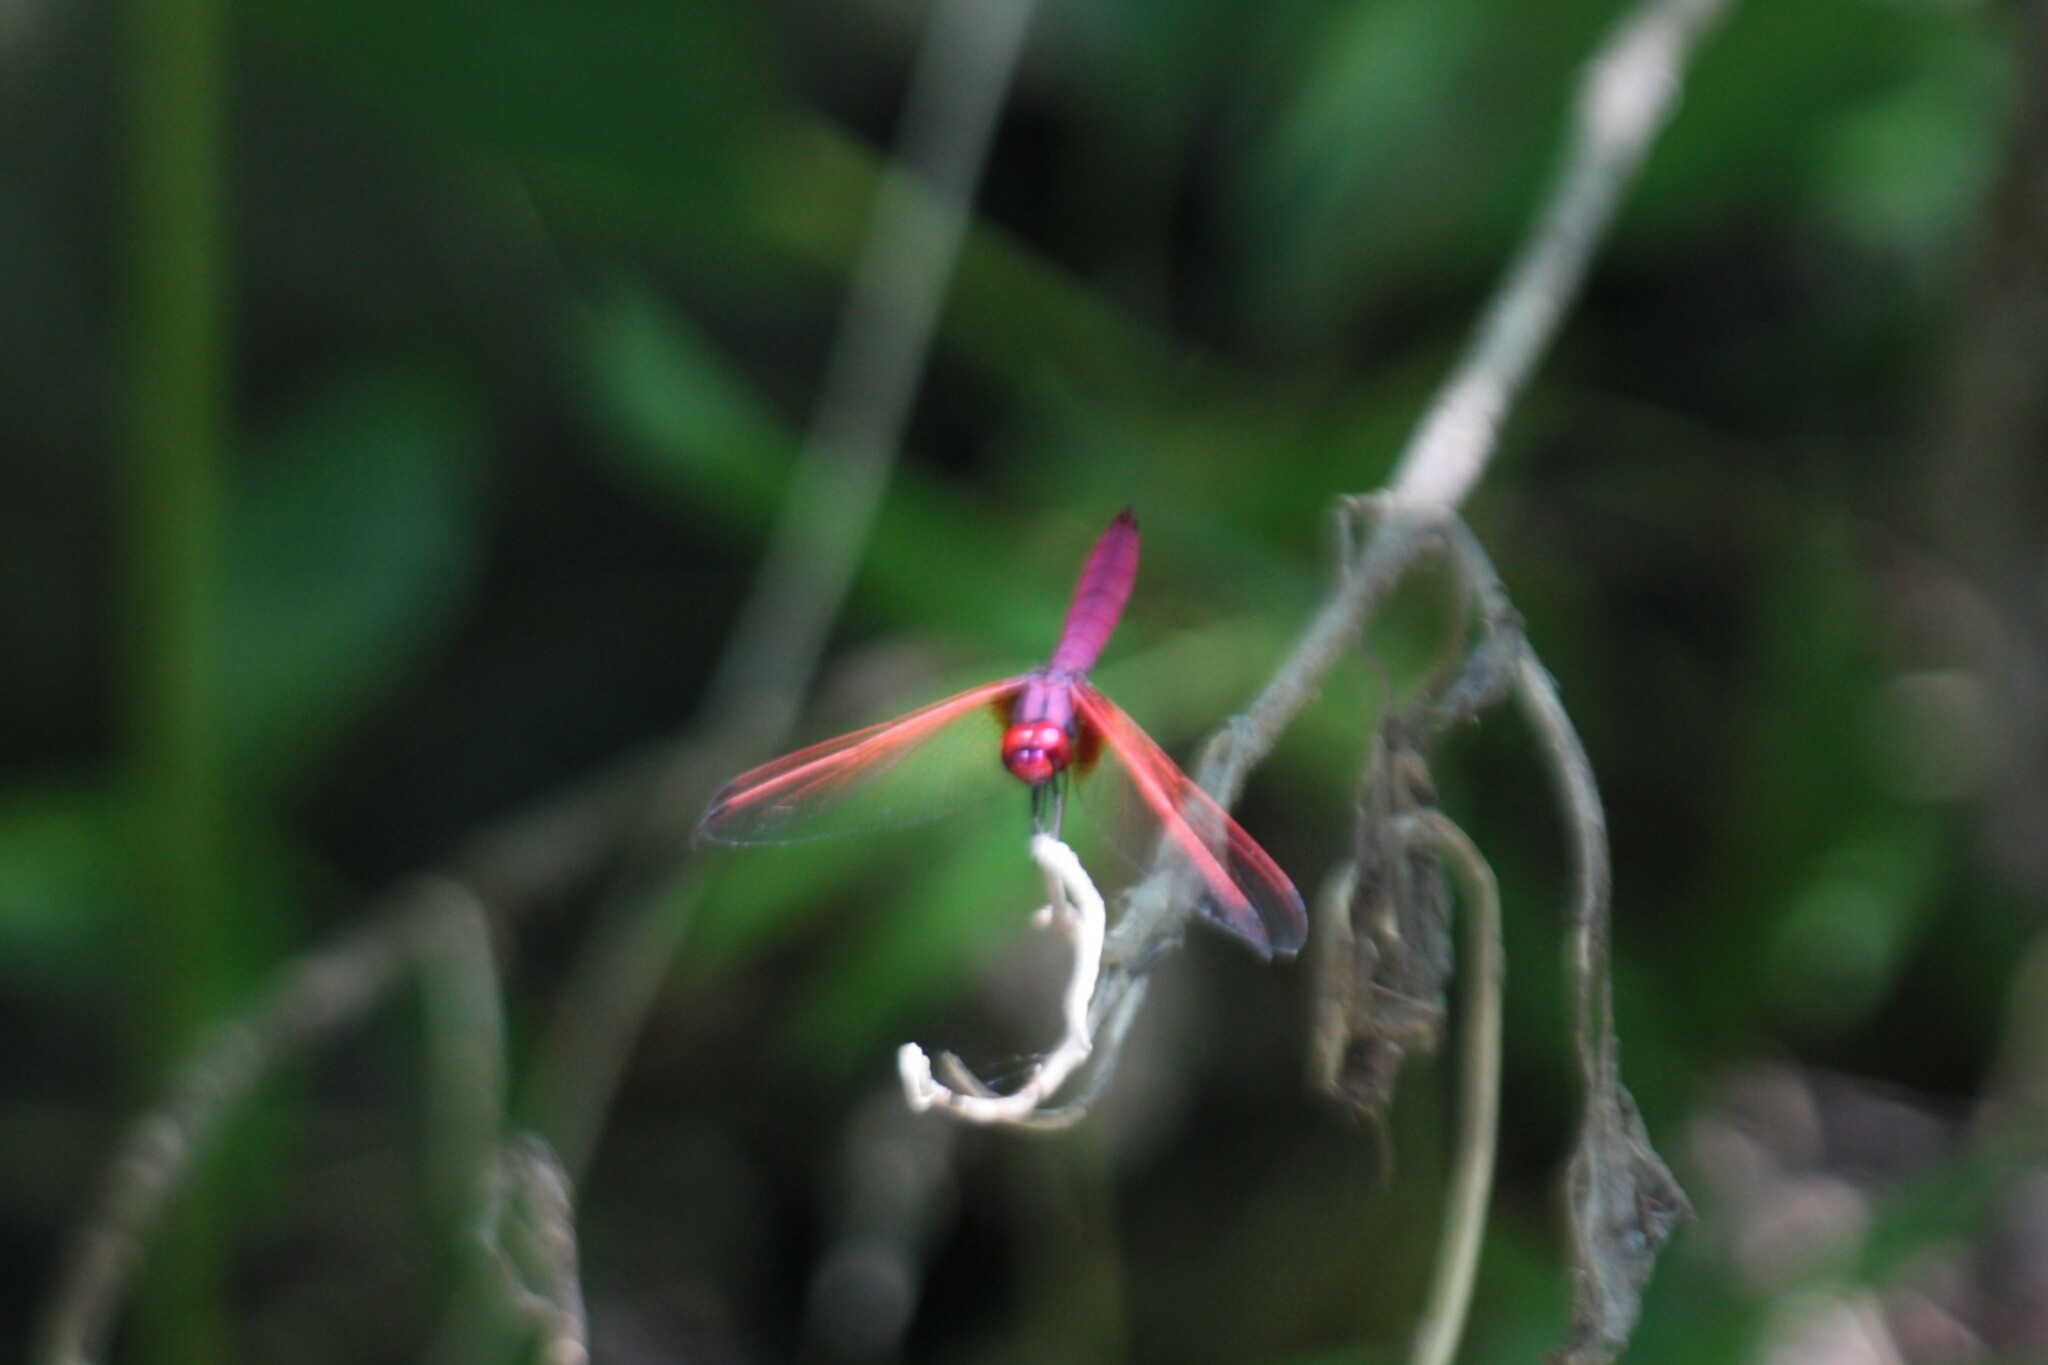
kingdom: Animalia
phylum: Arthropoda
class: Insecta
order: Odonata
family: Libellulidae
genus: Trithemis
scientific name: Trithemis aurora
